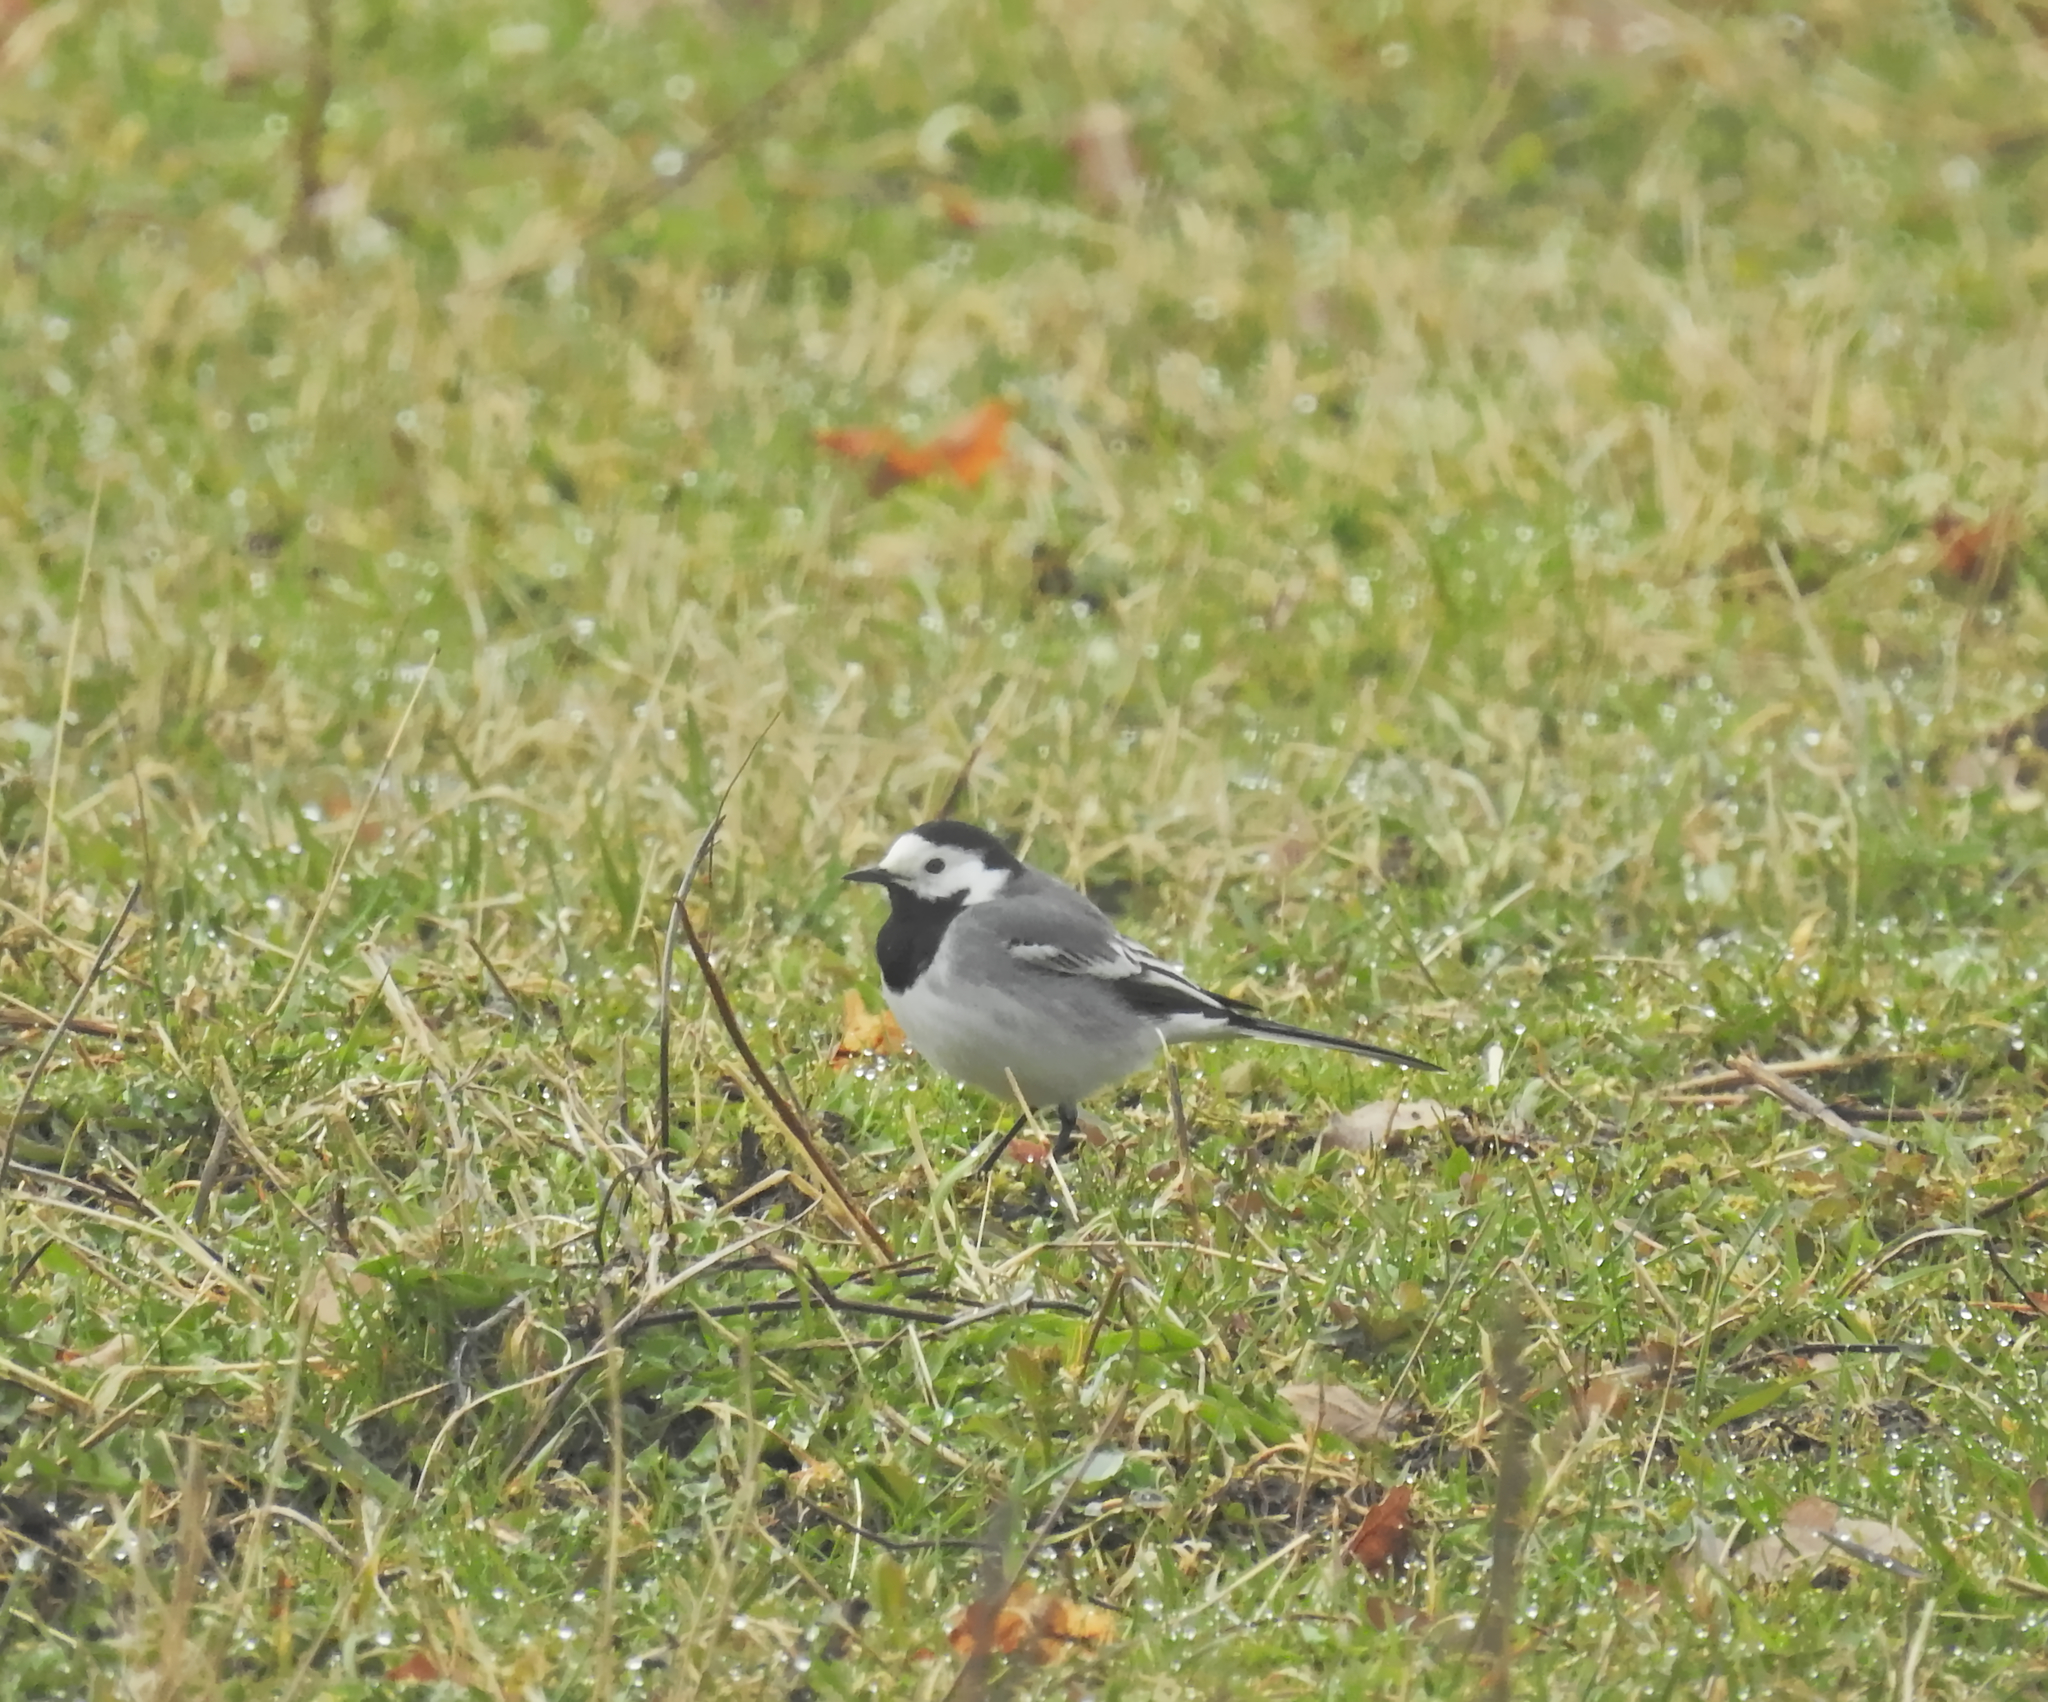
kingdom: Animalia
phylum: Chordata
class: Aves
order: Passeriformes
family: Motacillidae
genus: Motacilla
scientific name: Motacilla alba
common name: White wagtail
